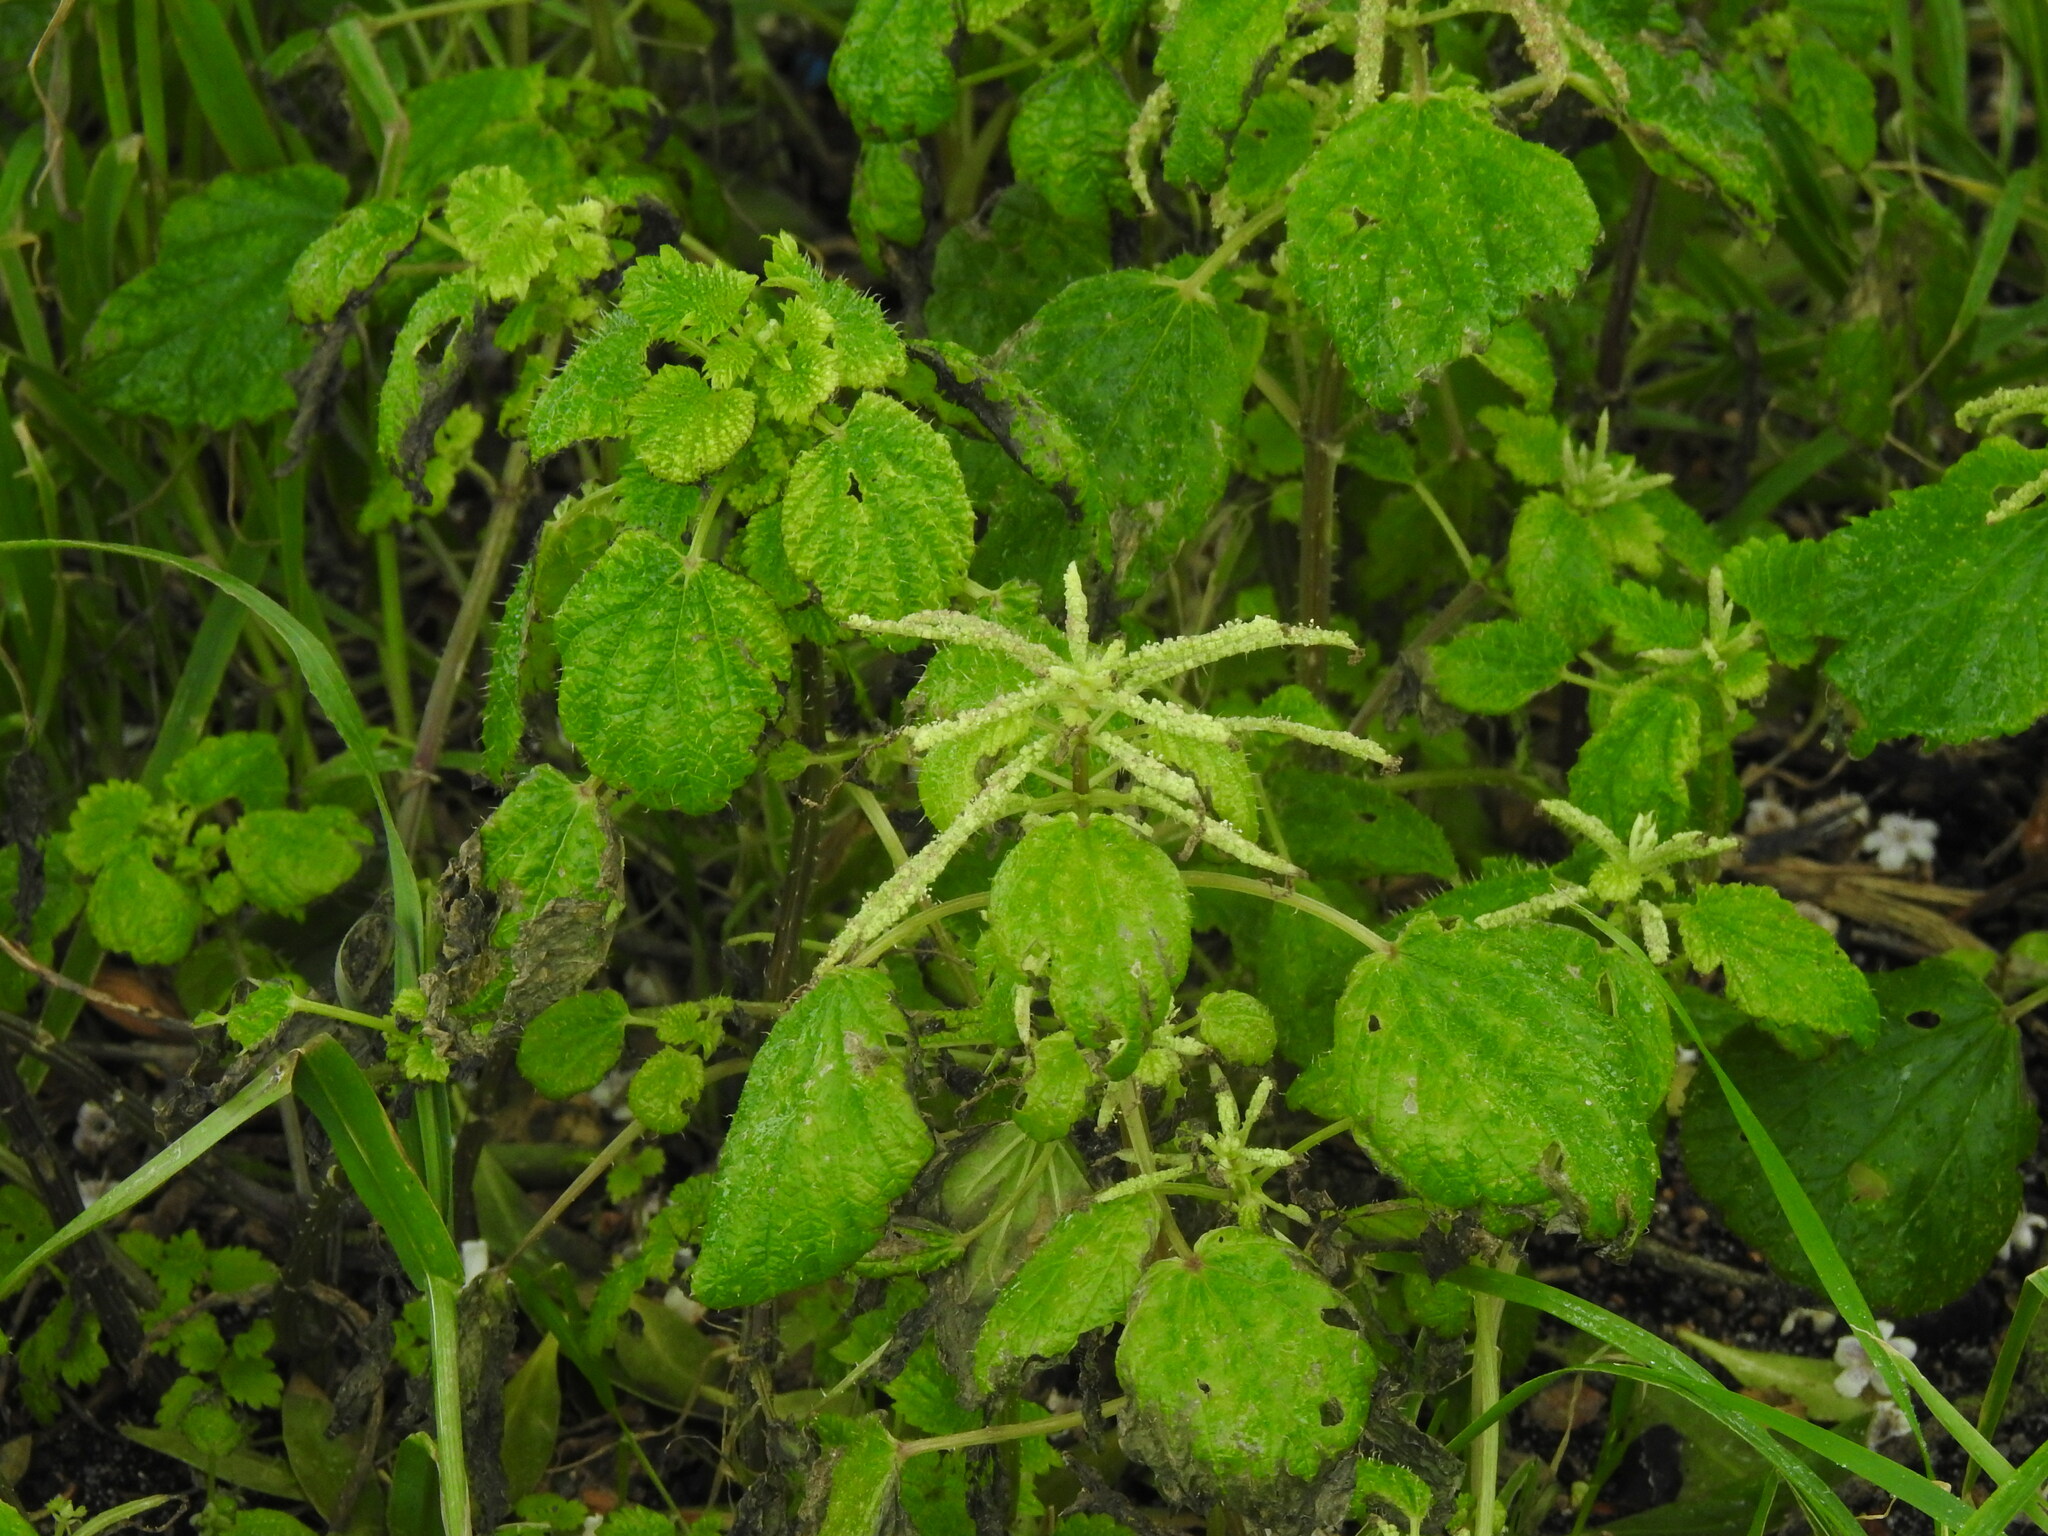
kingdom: Plantae
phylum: Tracheophyta
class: Magnoliopsida
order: Rosales
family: Urticaceae
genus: Urtica
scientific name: Urtica membranacea
